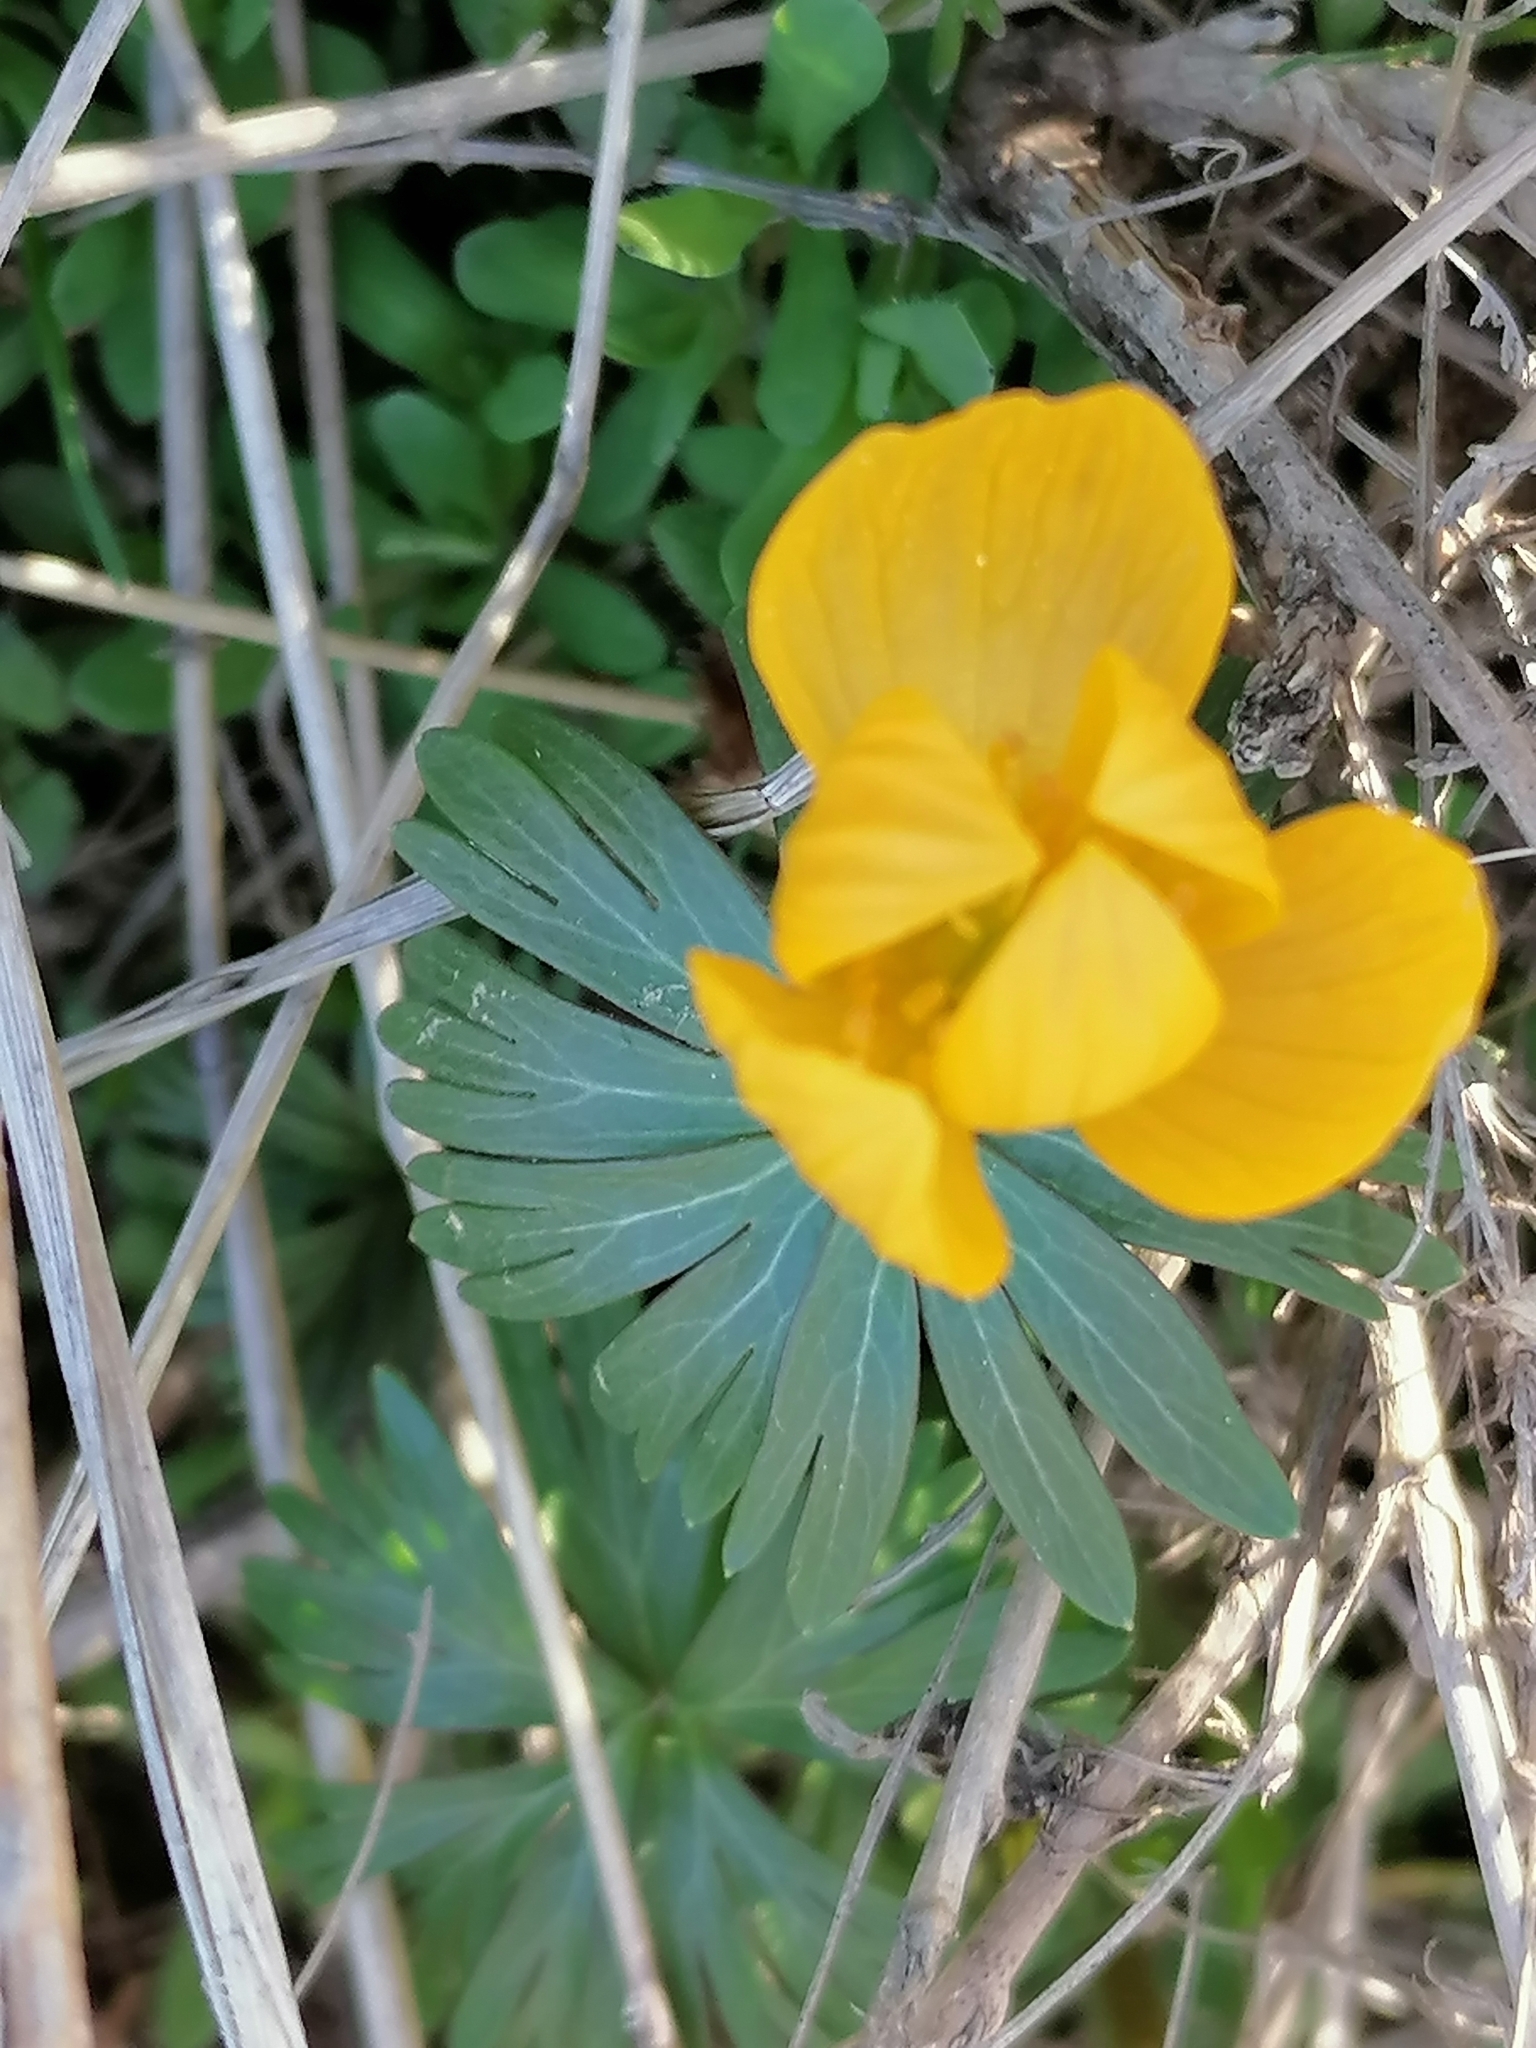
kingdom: Plantae
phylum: Tracheophyta
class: Magnoliopsida
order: Ranunculales
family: Ranunculaceae
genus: Eranthis
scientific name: Eranthis longistipitata
